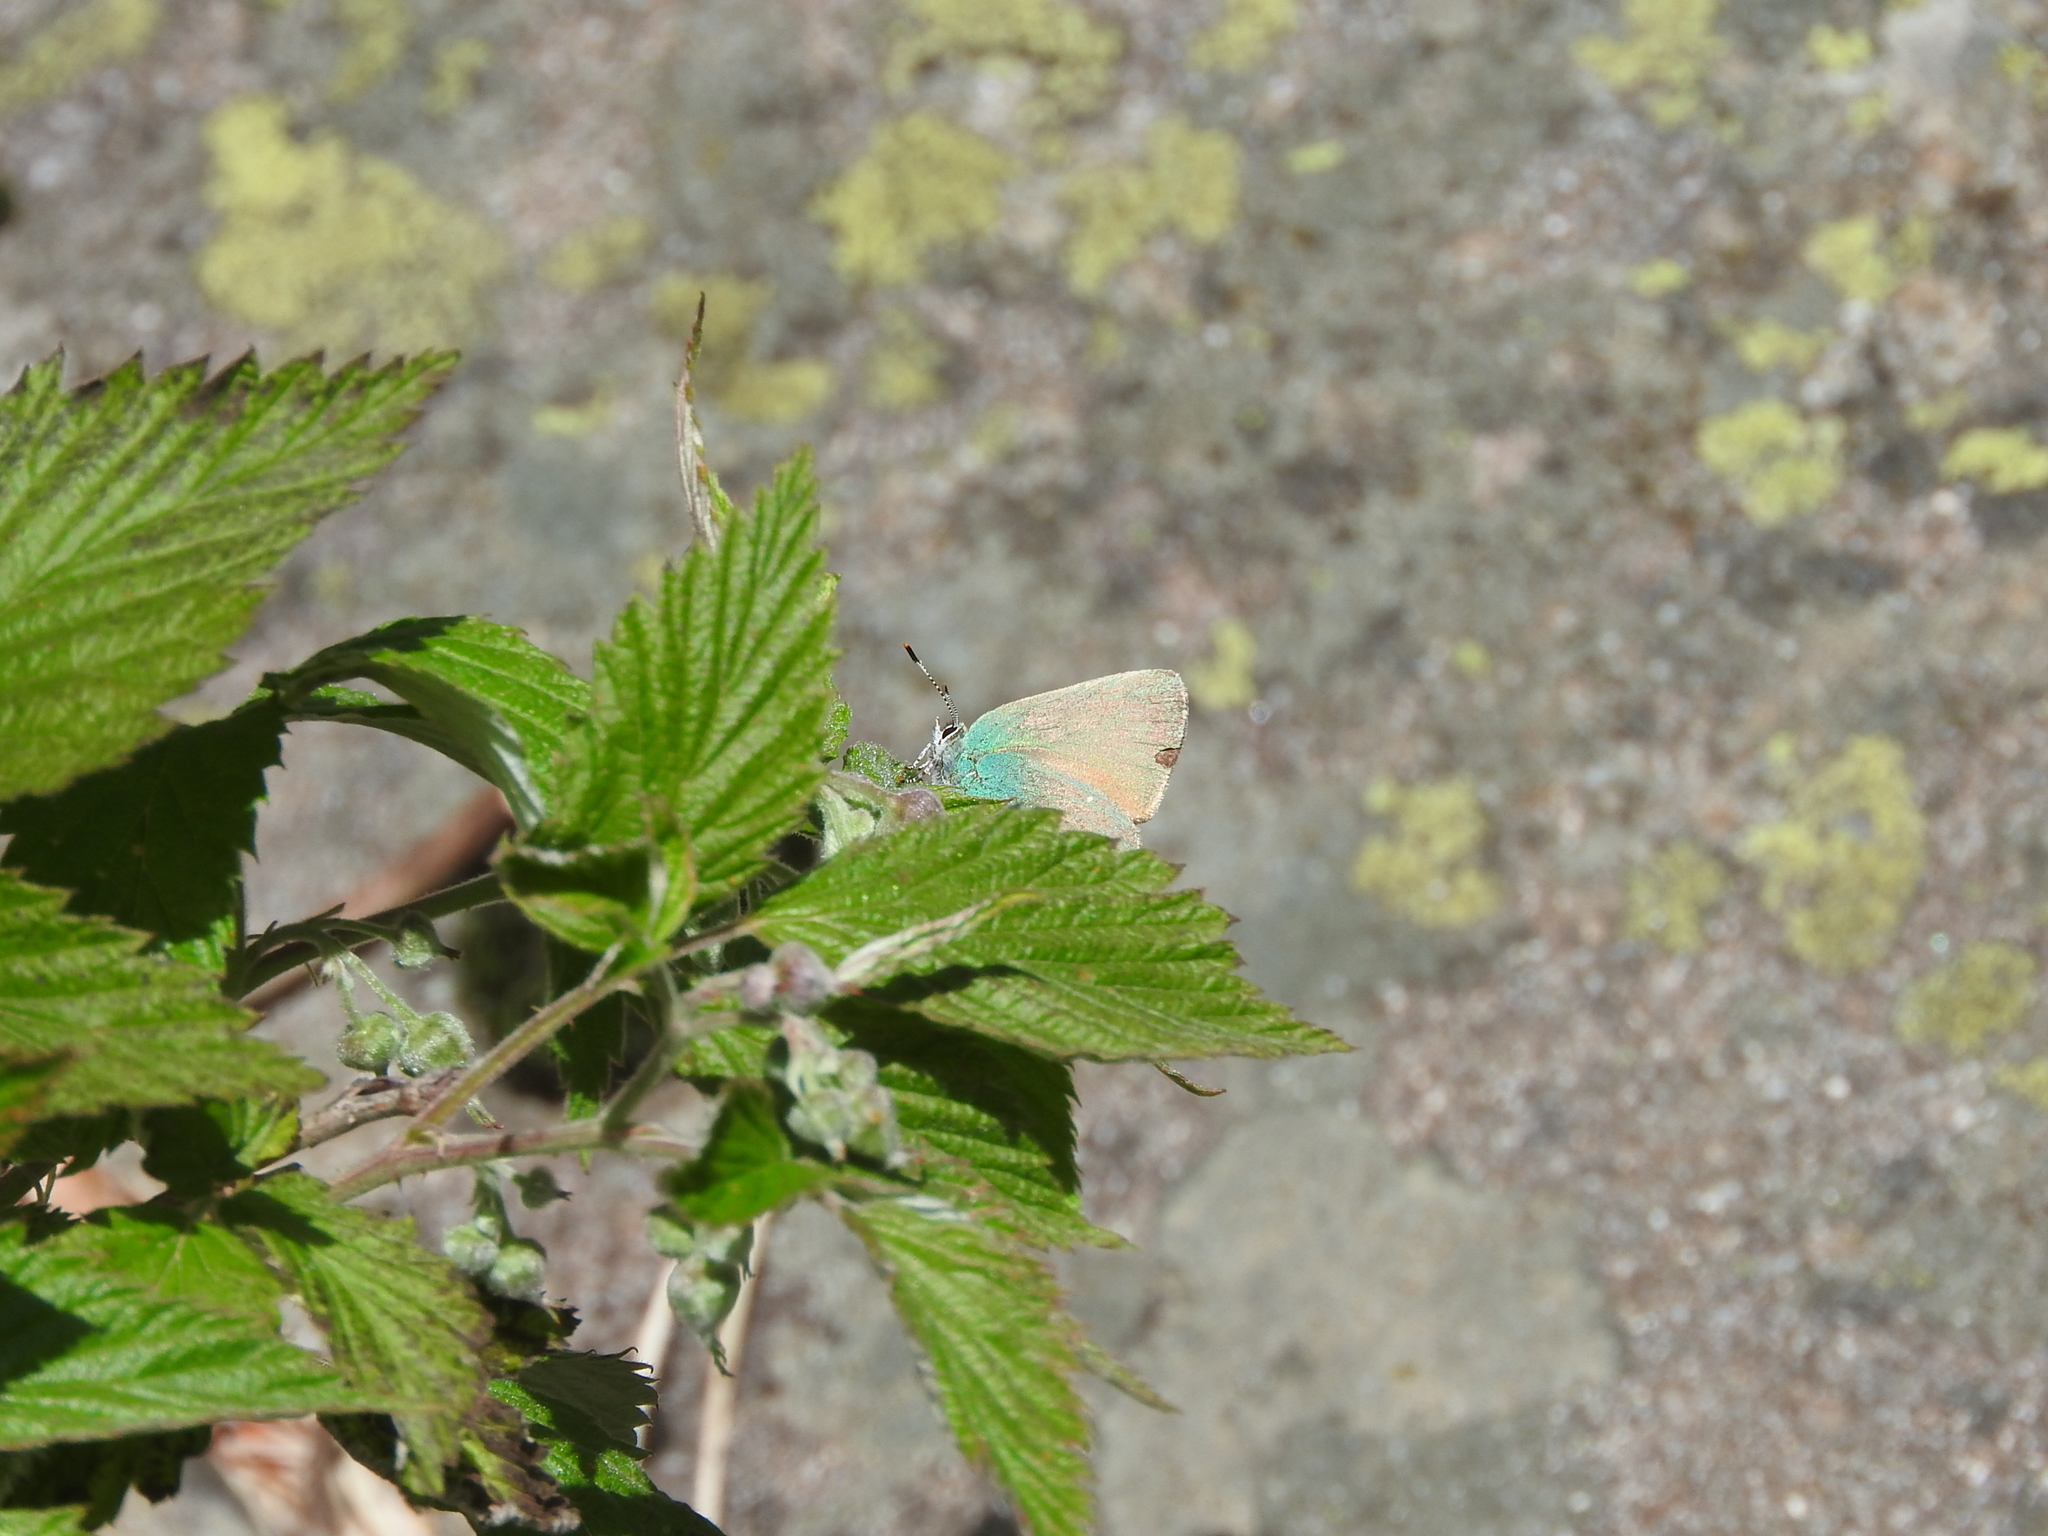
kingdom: Animalia
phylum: Arthropoda
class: Insecta
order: Lepidoptera
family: Lycaenidae
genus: Callophrys
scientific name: Callophrys rubi
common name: Green hairstreak
